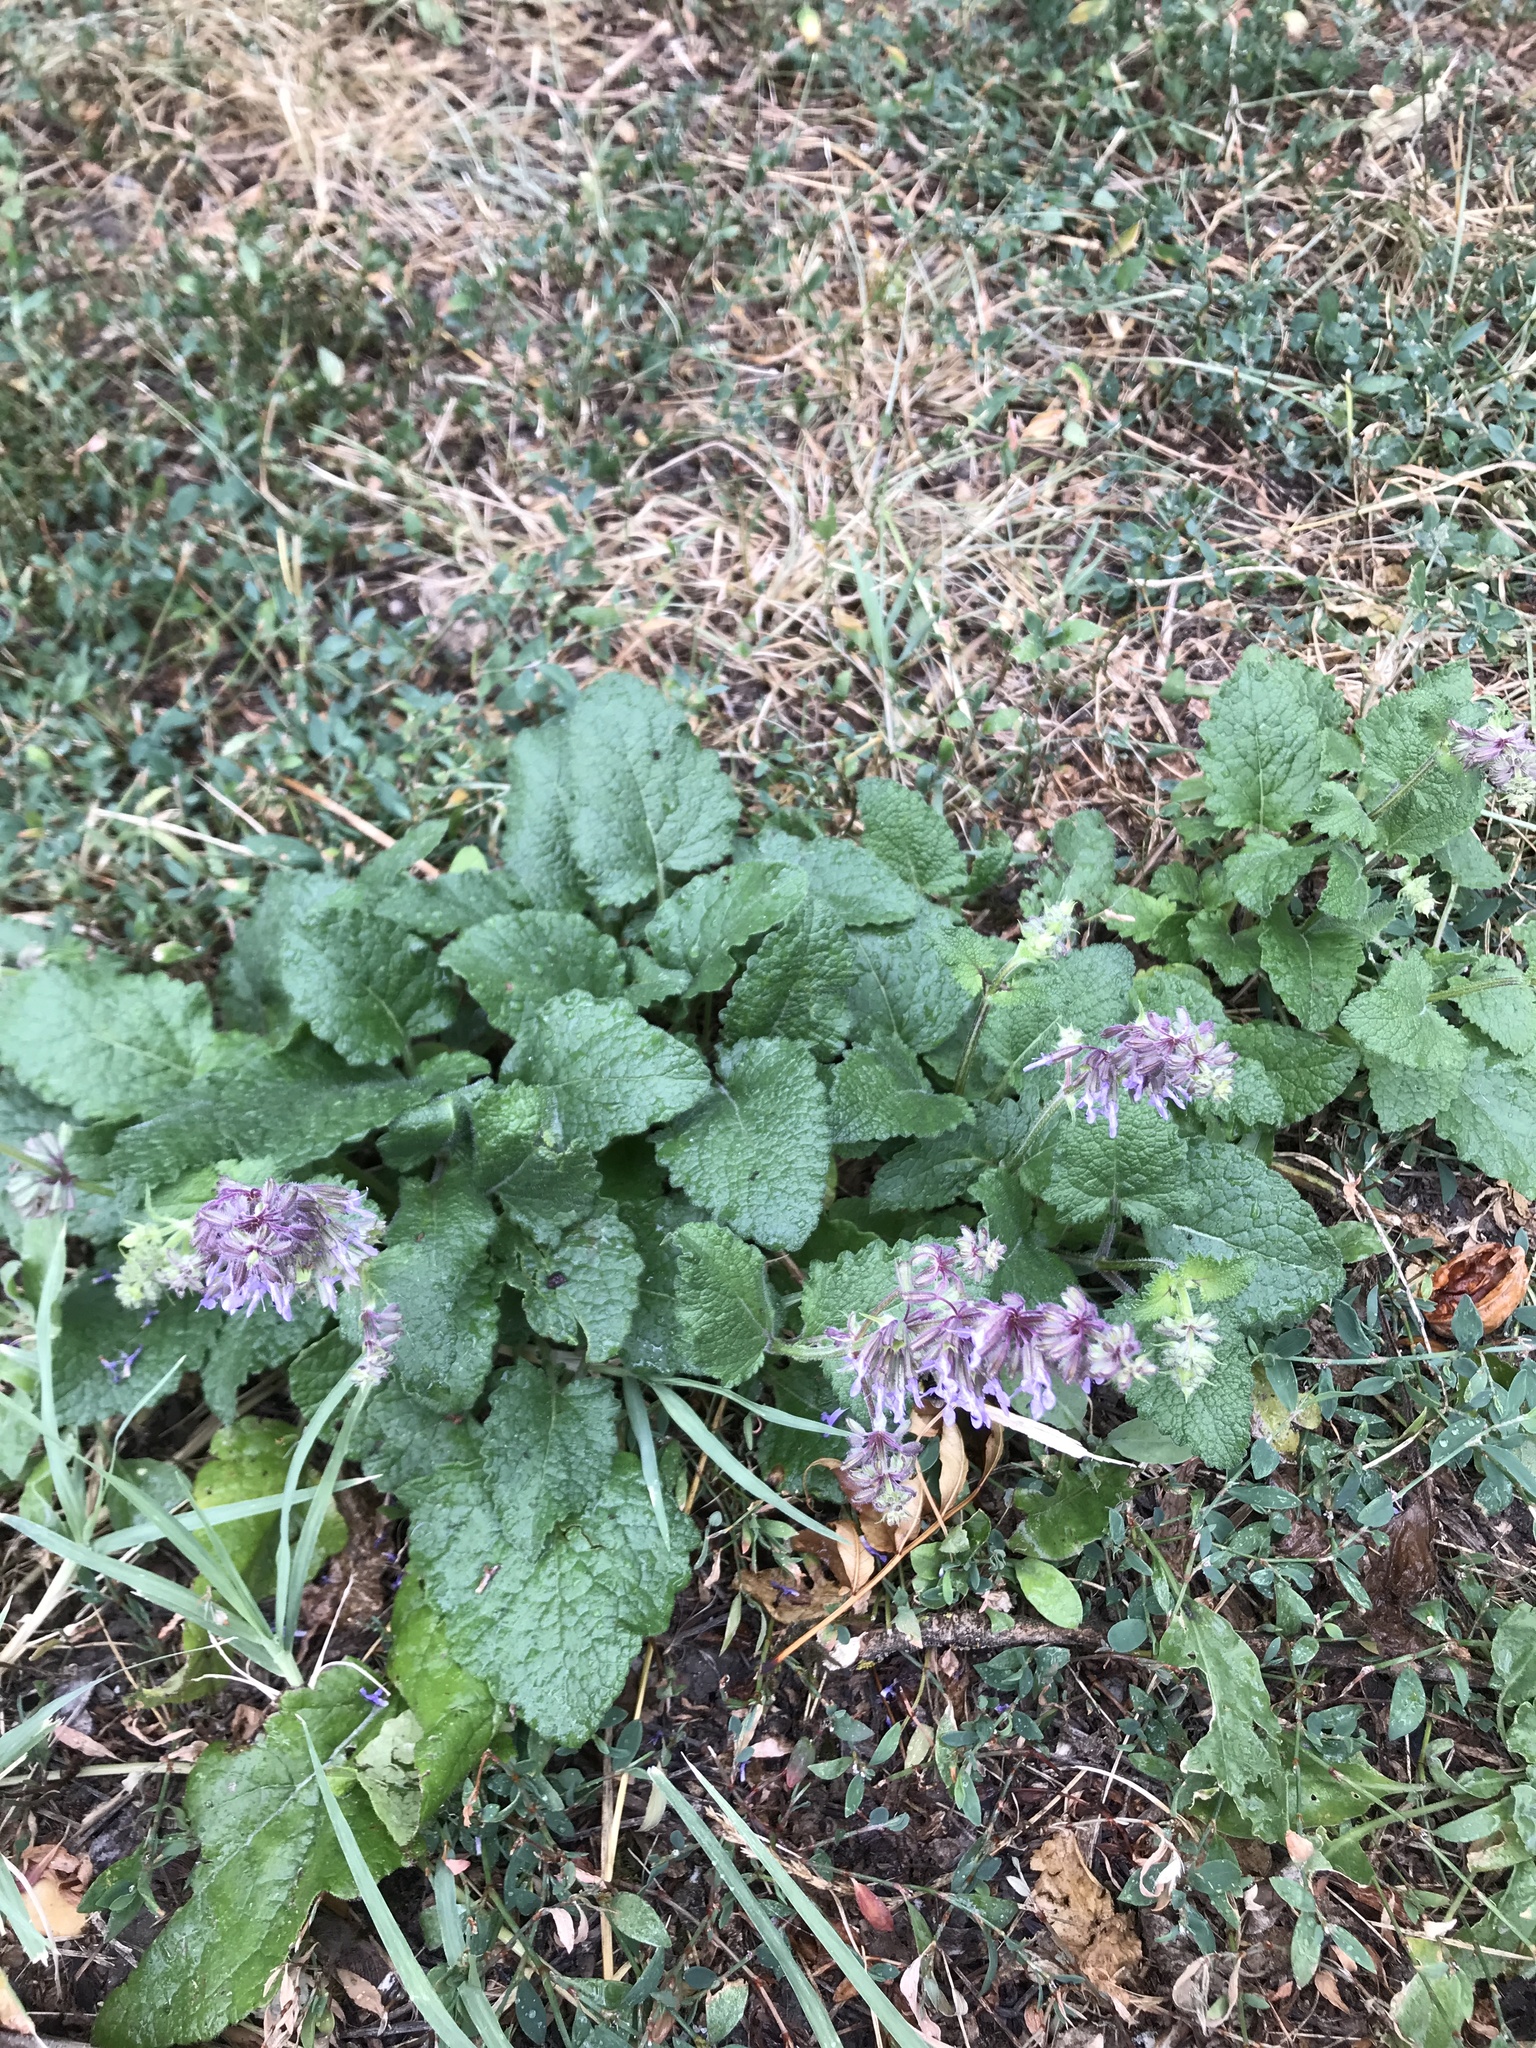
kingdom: Plantae
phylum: Tracheophyta
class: Magnoliopsida
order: Lamiales
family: Lamiaceae
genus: Salvia
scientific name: Salvia verticillata
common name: Whorled clary
